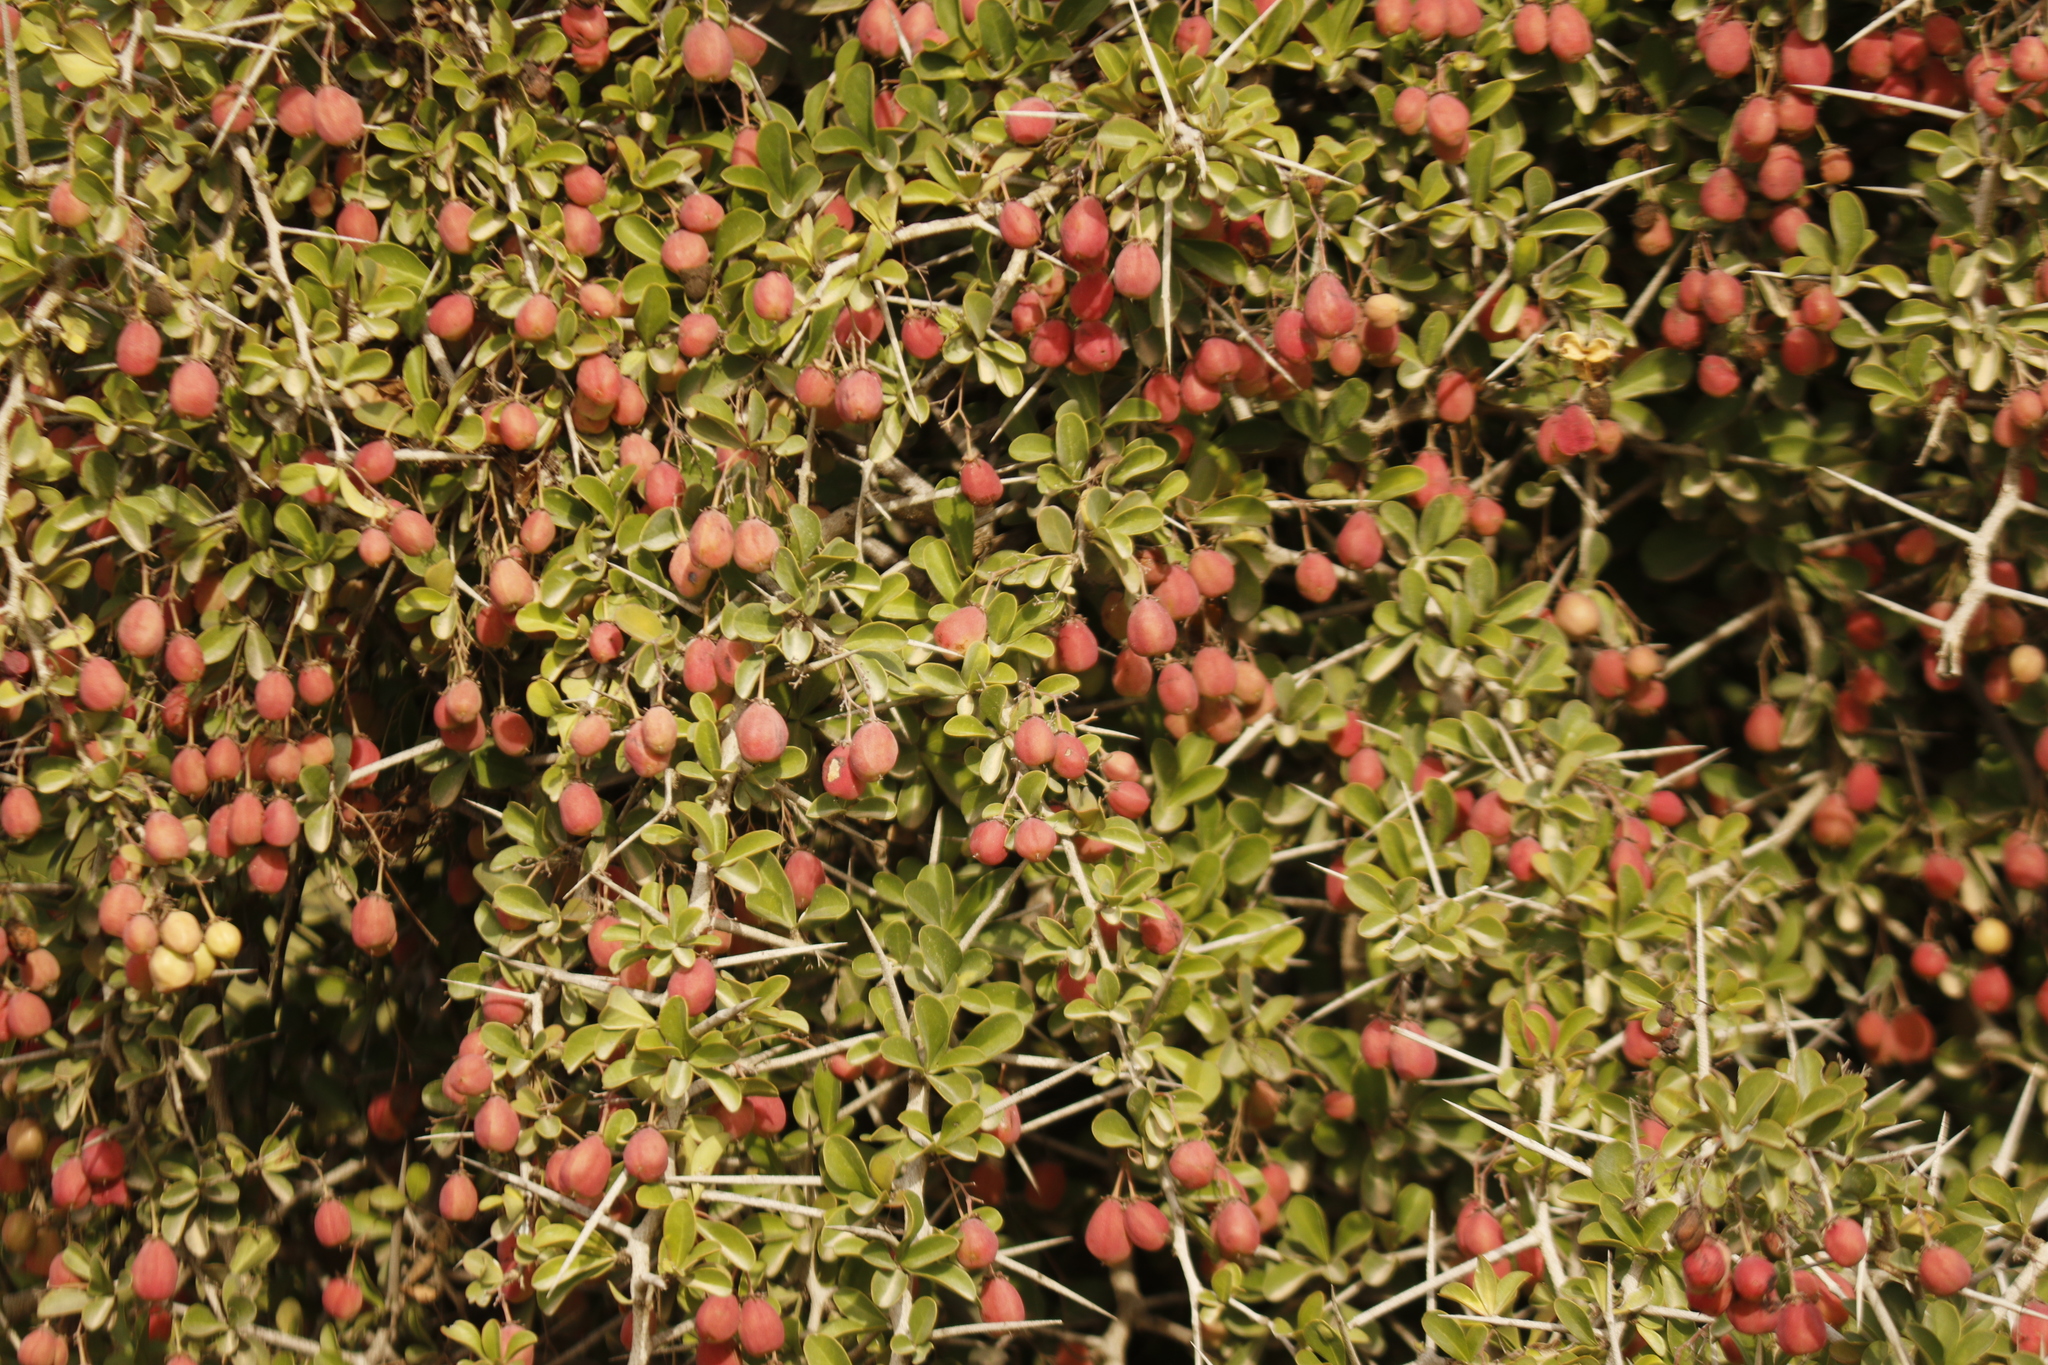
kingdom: Plantae
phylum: Tracheophyta
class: Magnoliopsida
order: Celastrales
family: Celastraceae
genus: Putterlickia
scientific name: Putterlickia pyracantha
